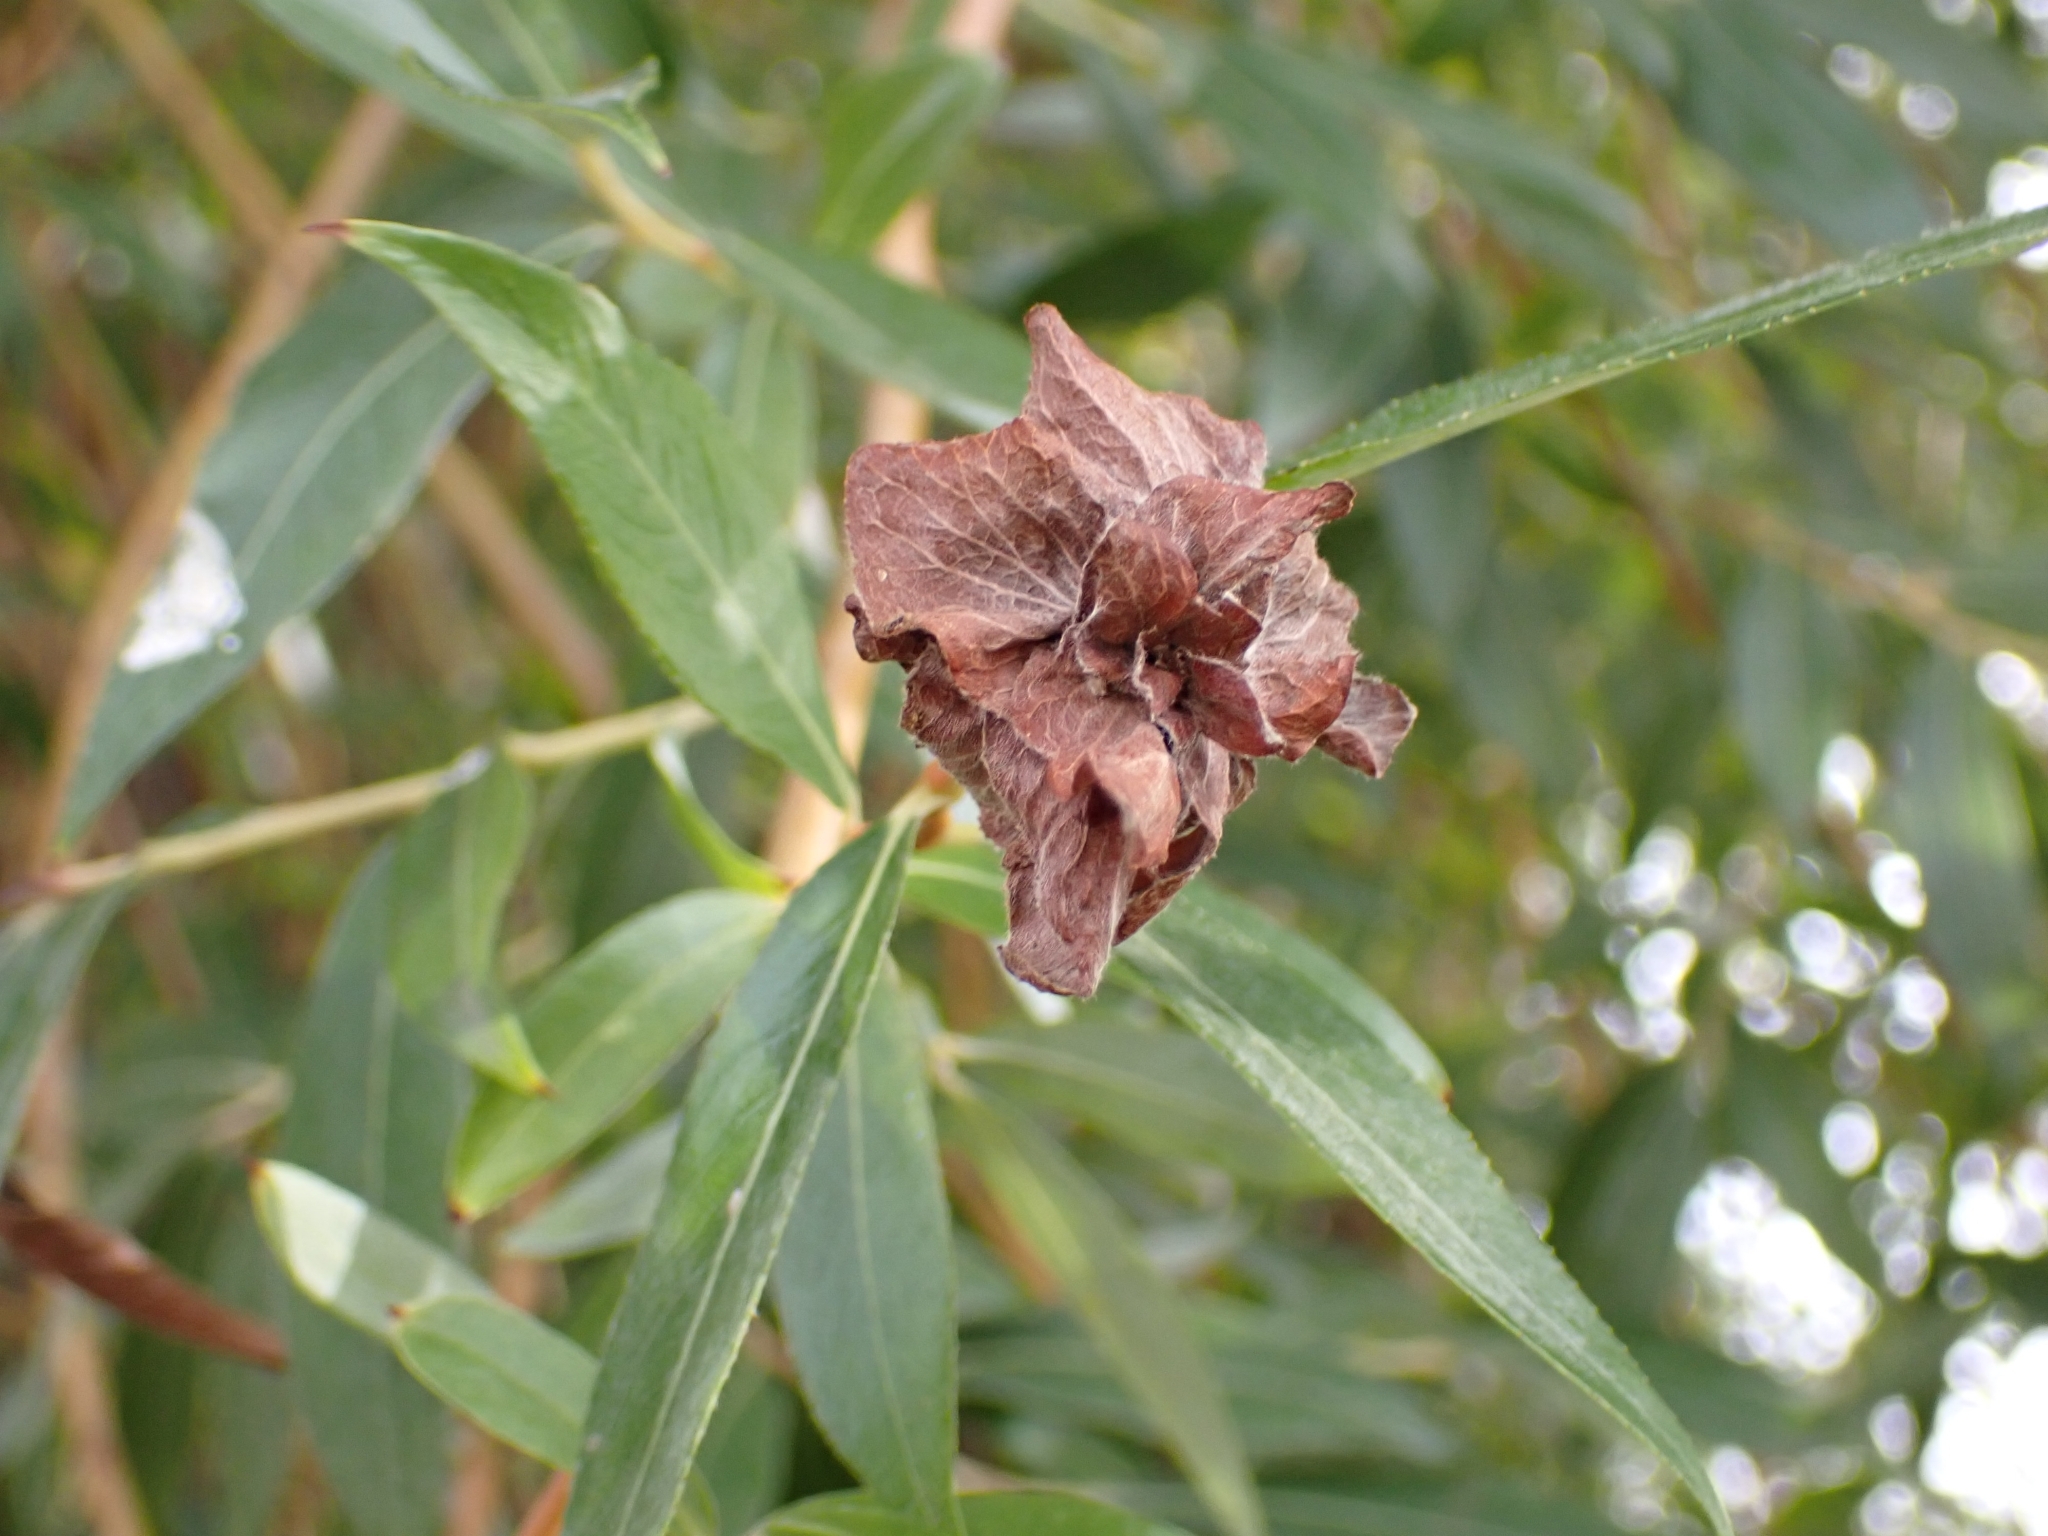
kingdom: Animalia
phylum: Arthropoda
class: Insecta
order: Diptera
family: Cecidomyiidae
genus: Rabdophaga
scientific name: Rabdophaga rosaria
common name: Willow rose gall midge
